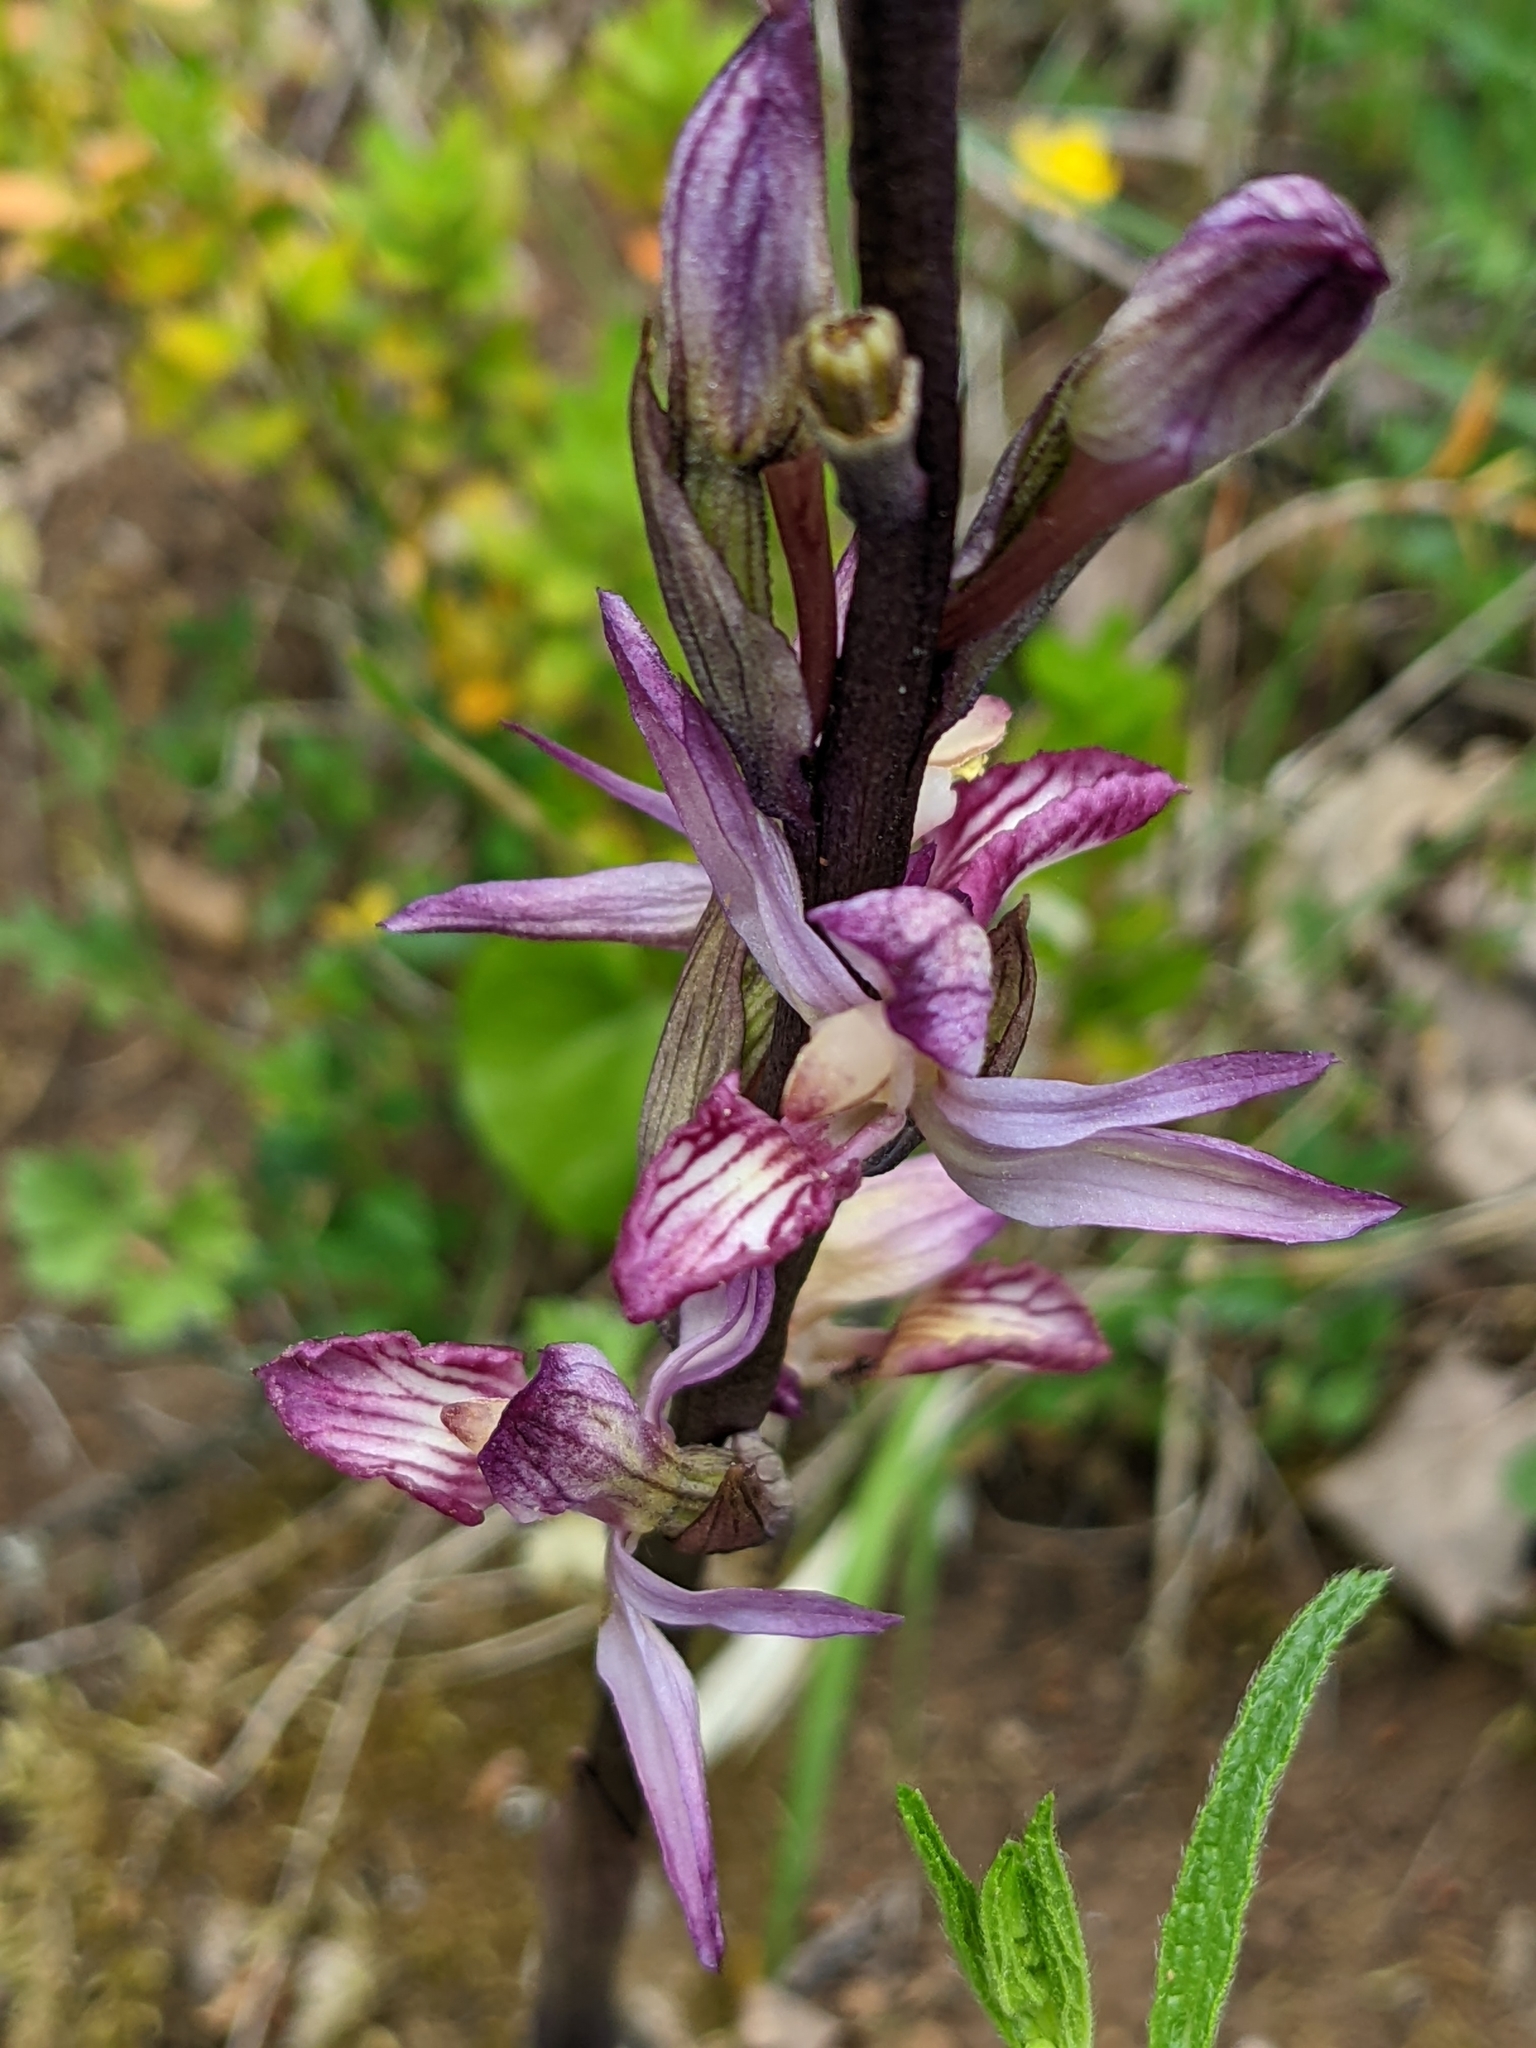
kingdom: Plantae
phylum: Tracheophyta
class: Liliopsida
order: Asparagales
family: Orchidaceae
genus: Limodorum
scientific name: Limodorum abortivum
